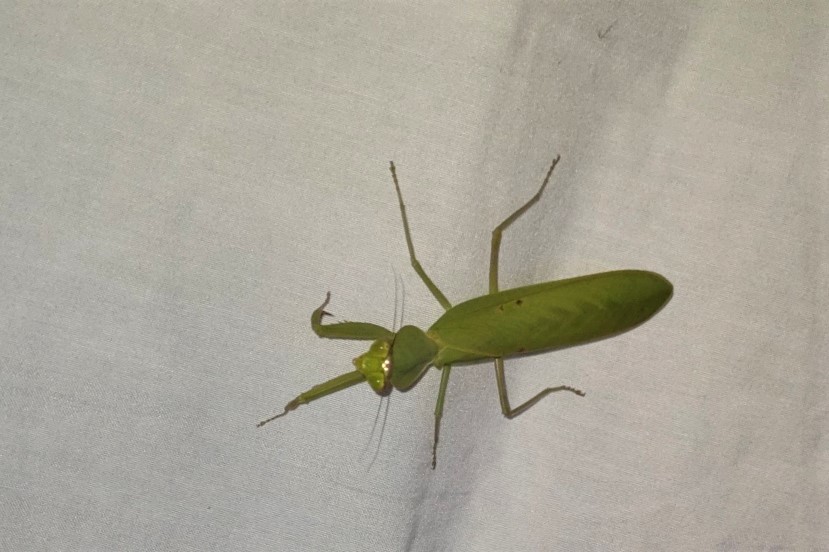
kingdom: Animalia
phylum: Arthropoda
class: Insecta
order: Mantodea
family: Mantidae
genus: Rhombomantis
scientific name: Rhombomantis longipennis
